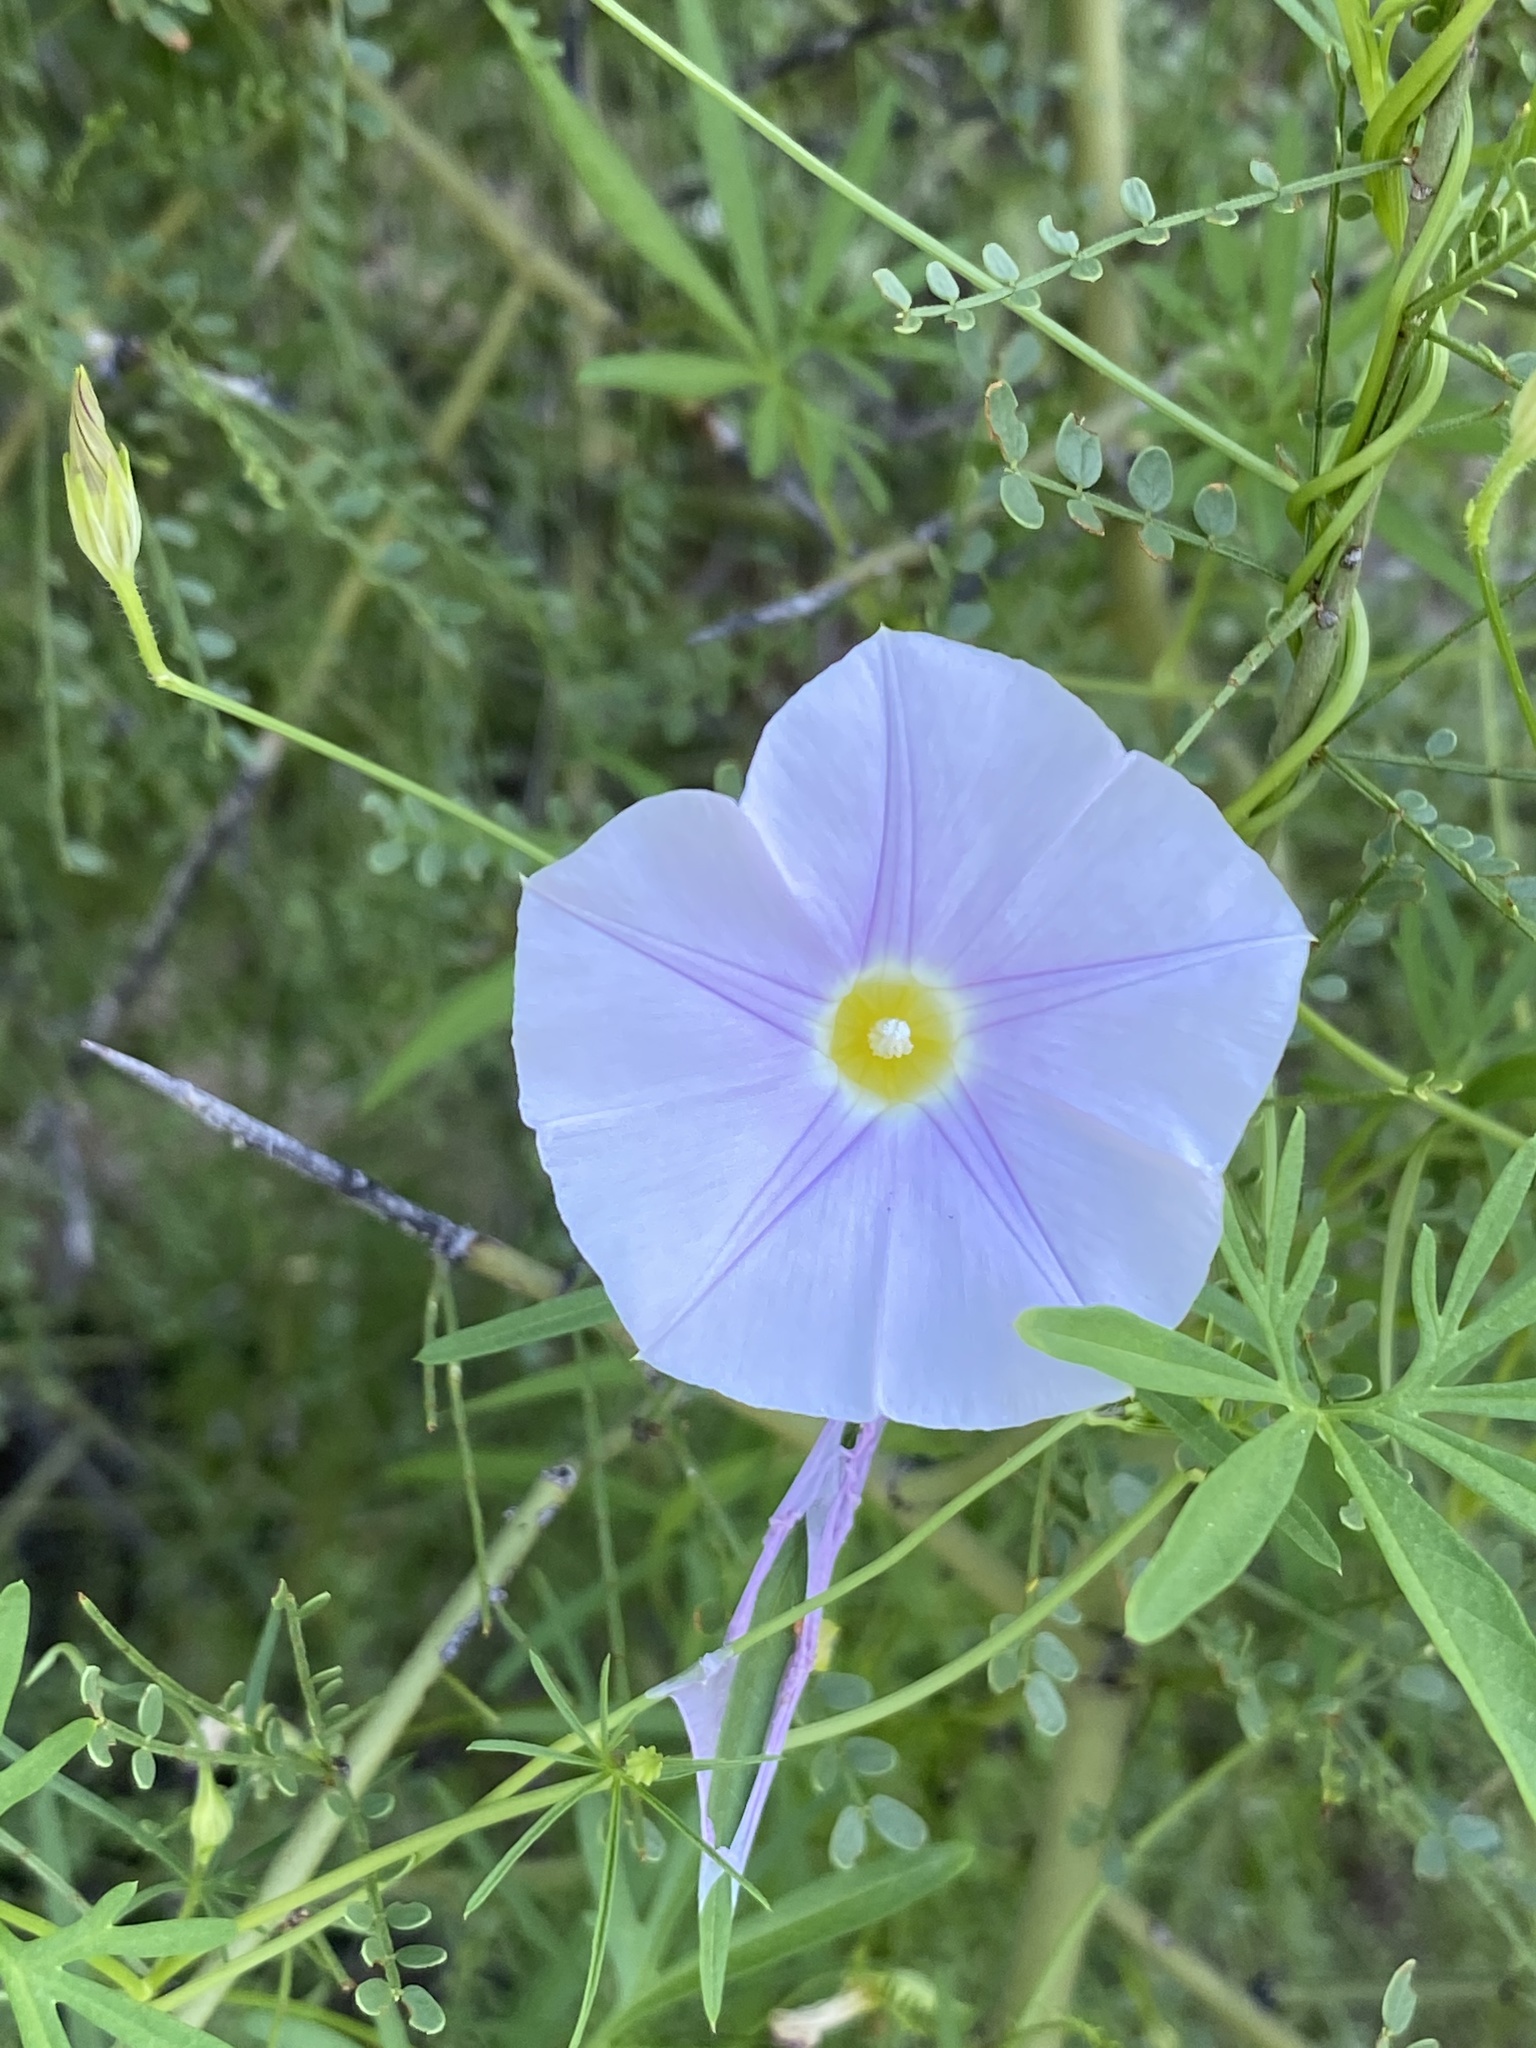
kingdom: Plantae
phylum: Tracheophyta
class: Magnoliopsida
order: Solanales
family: Convolvulaceae
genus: Ipomoea
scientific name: Ipomoea ternifolia
